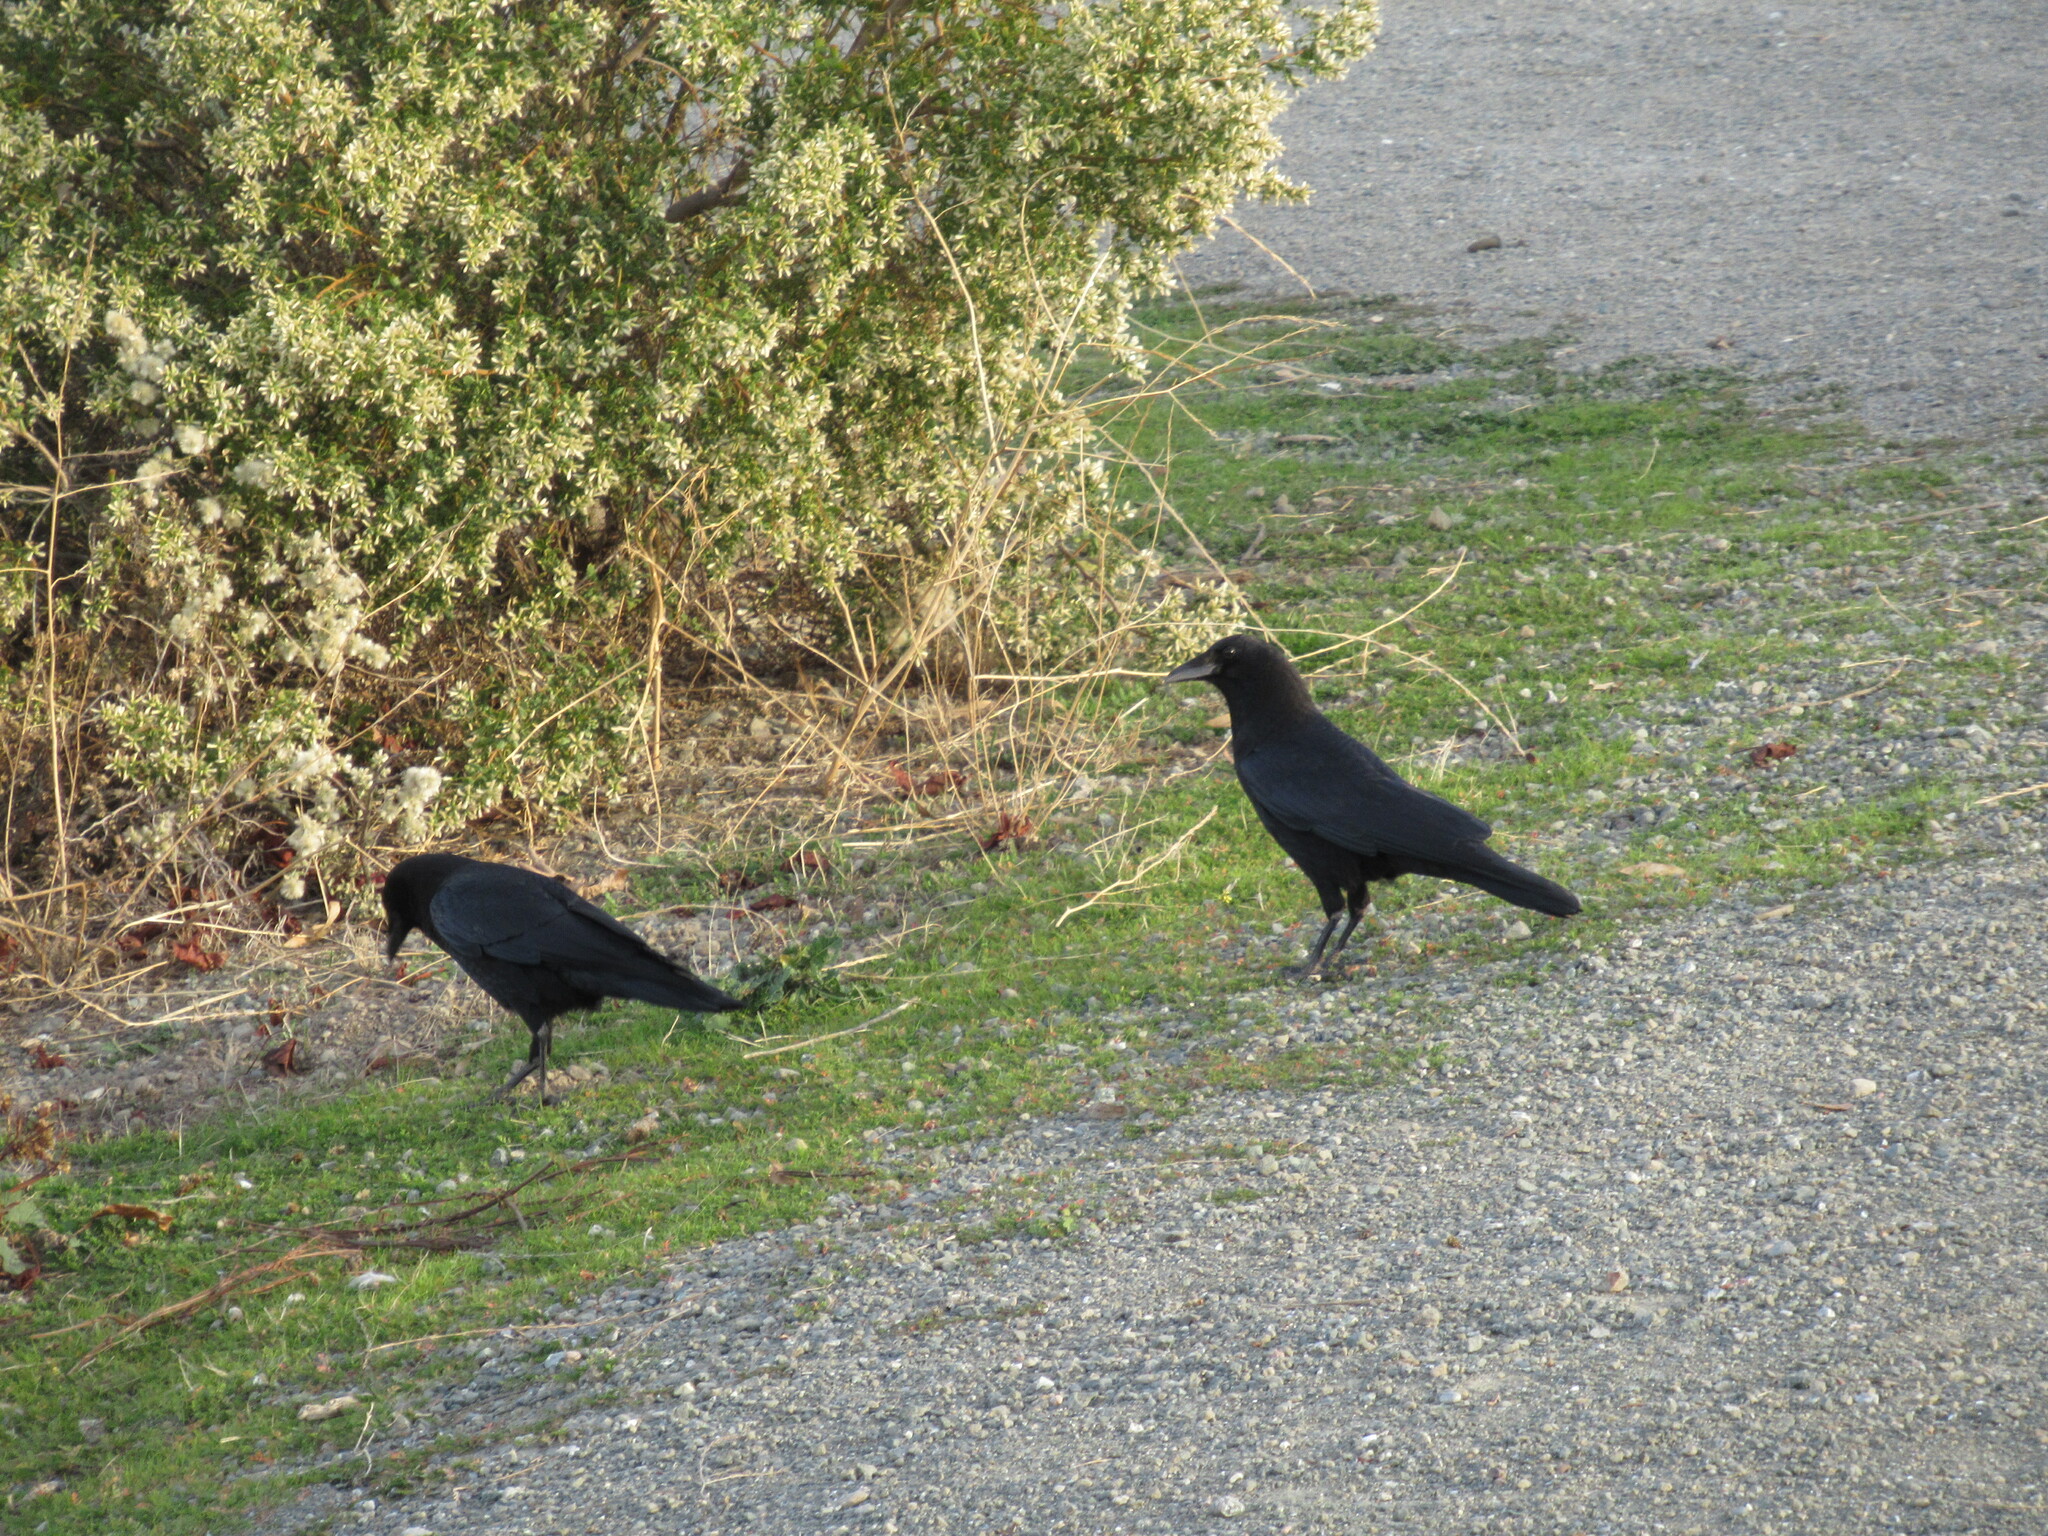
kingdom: Animalia
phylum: Chordata
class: Aves
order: Passeriformes
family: Corvidae
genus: Corvus
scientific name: Corvus brachyrhynchos
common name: American crow
